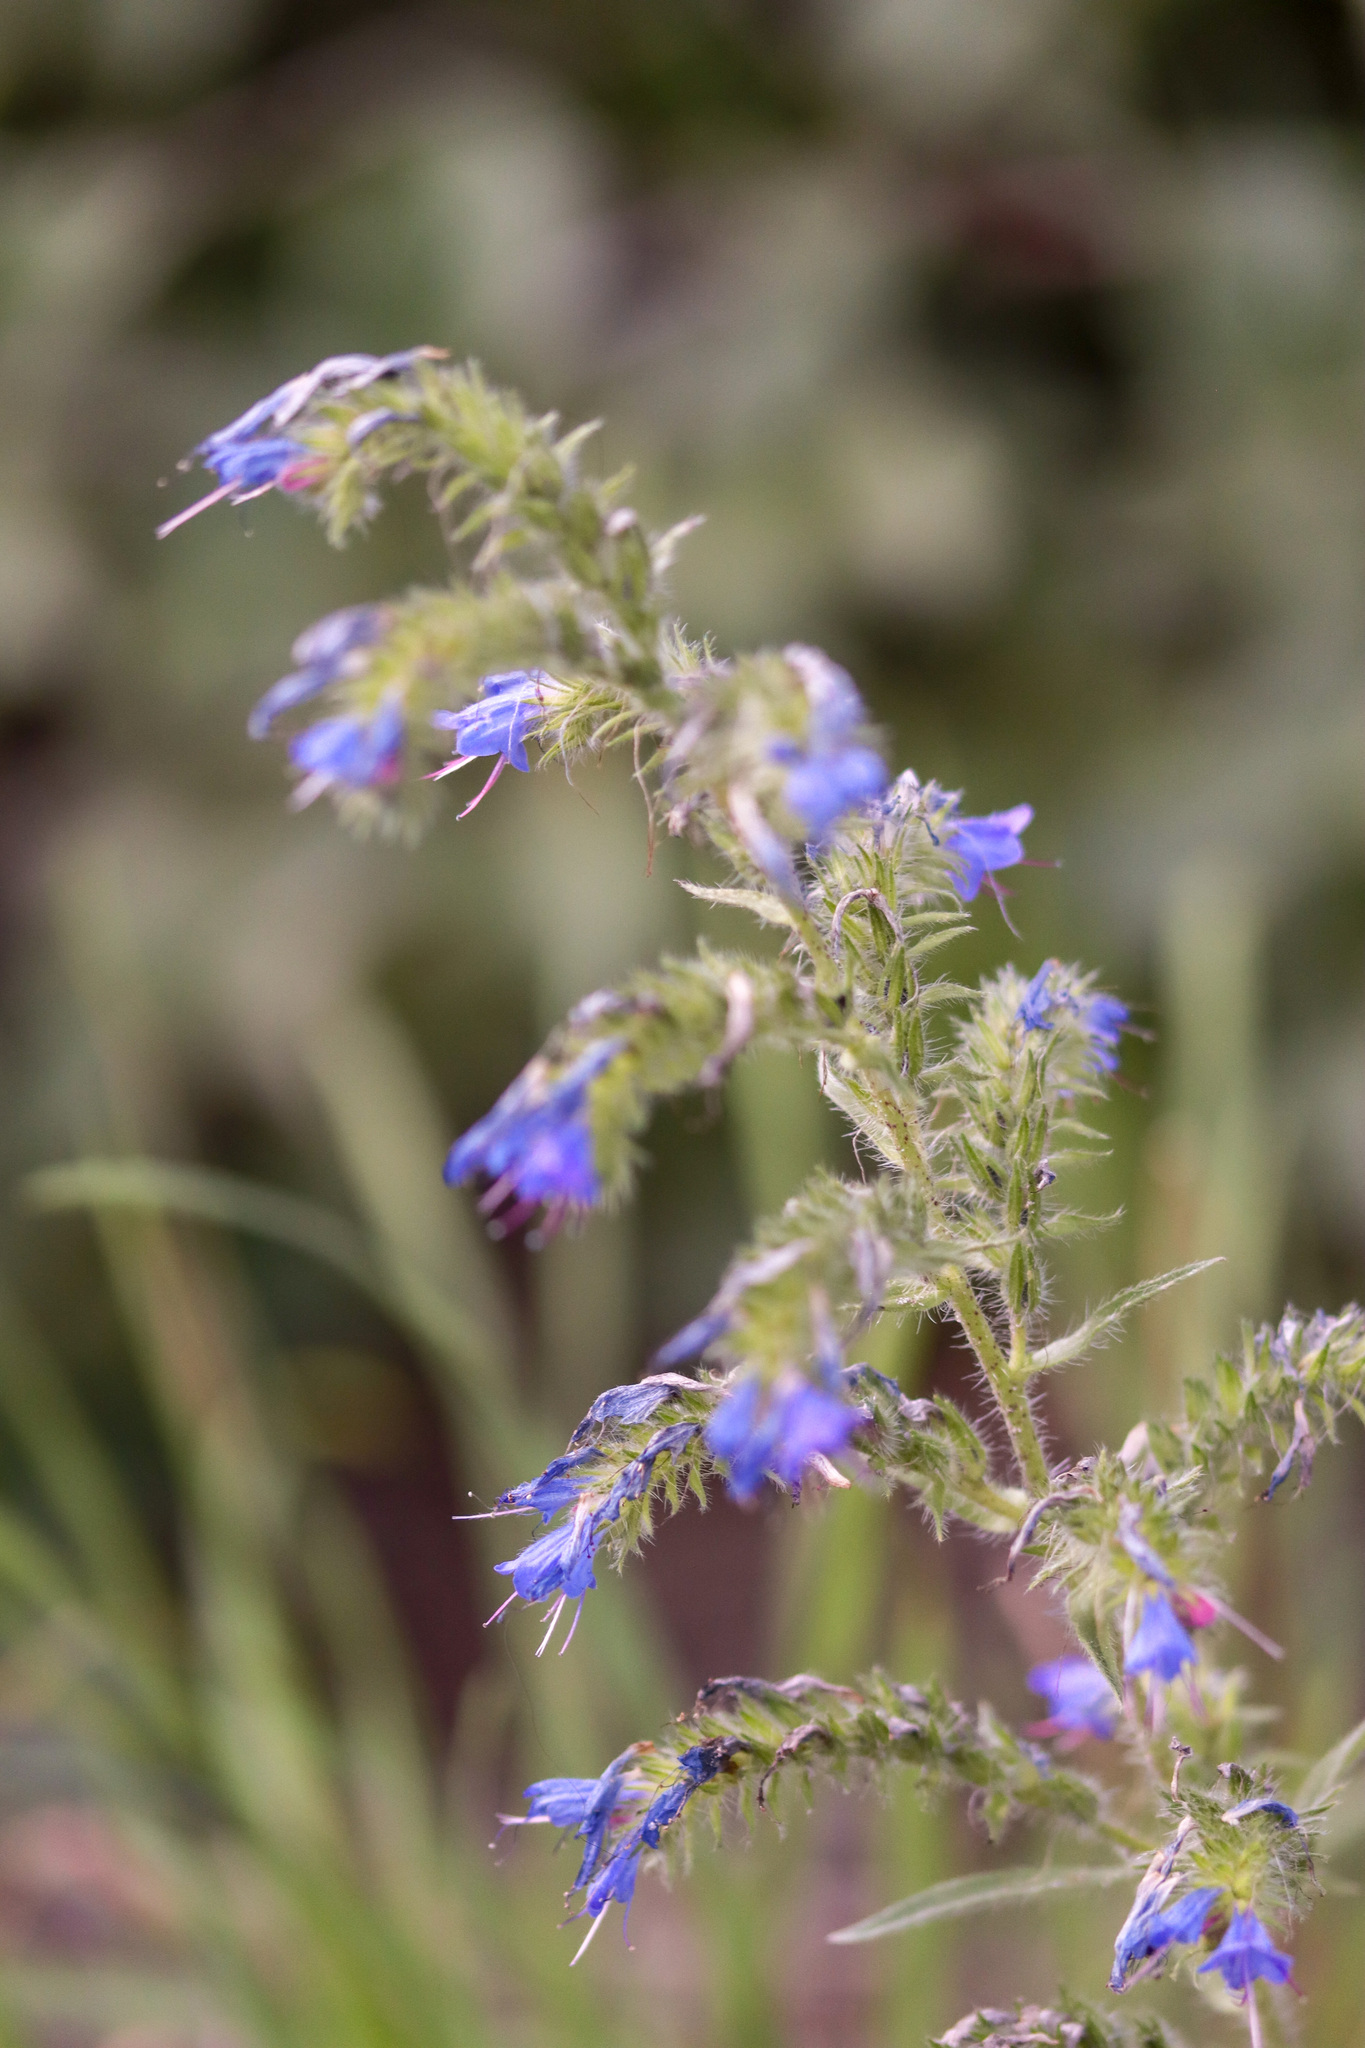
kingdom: Plantae
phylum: Tracheophyta
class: Magnoliopsida
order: Boraginales
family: Boraginaceae
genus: Echium
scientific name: Echium vulgare
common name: Common viper's bugloss
